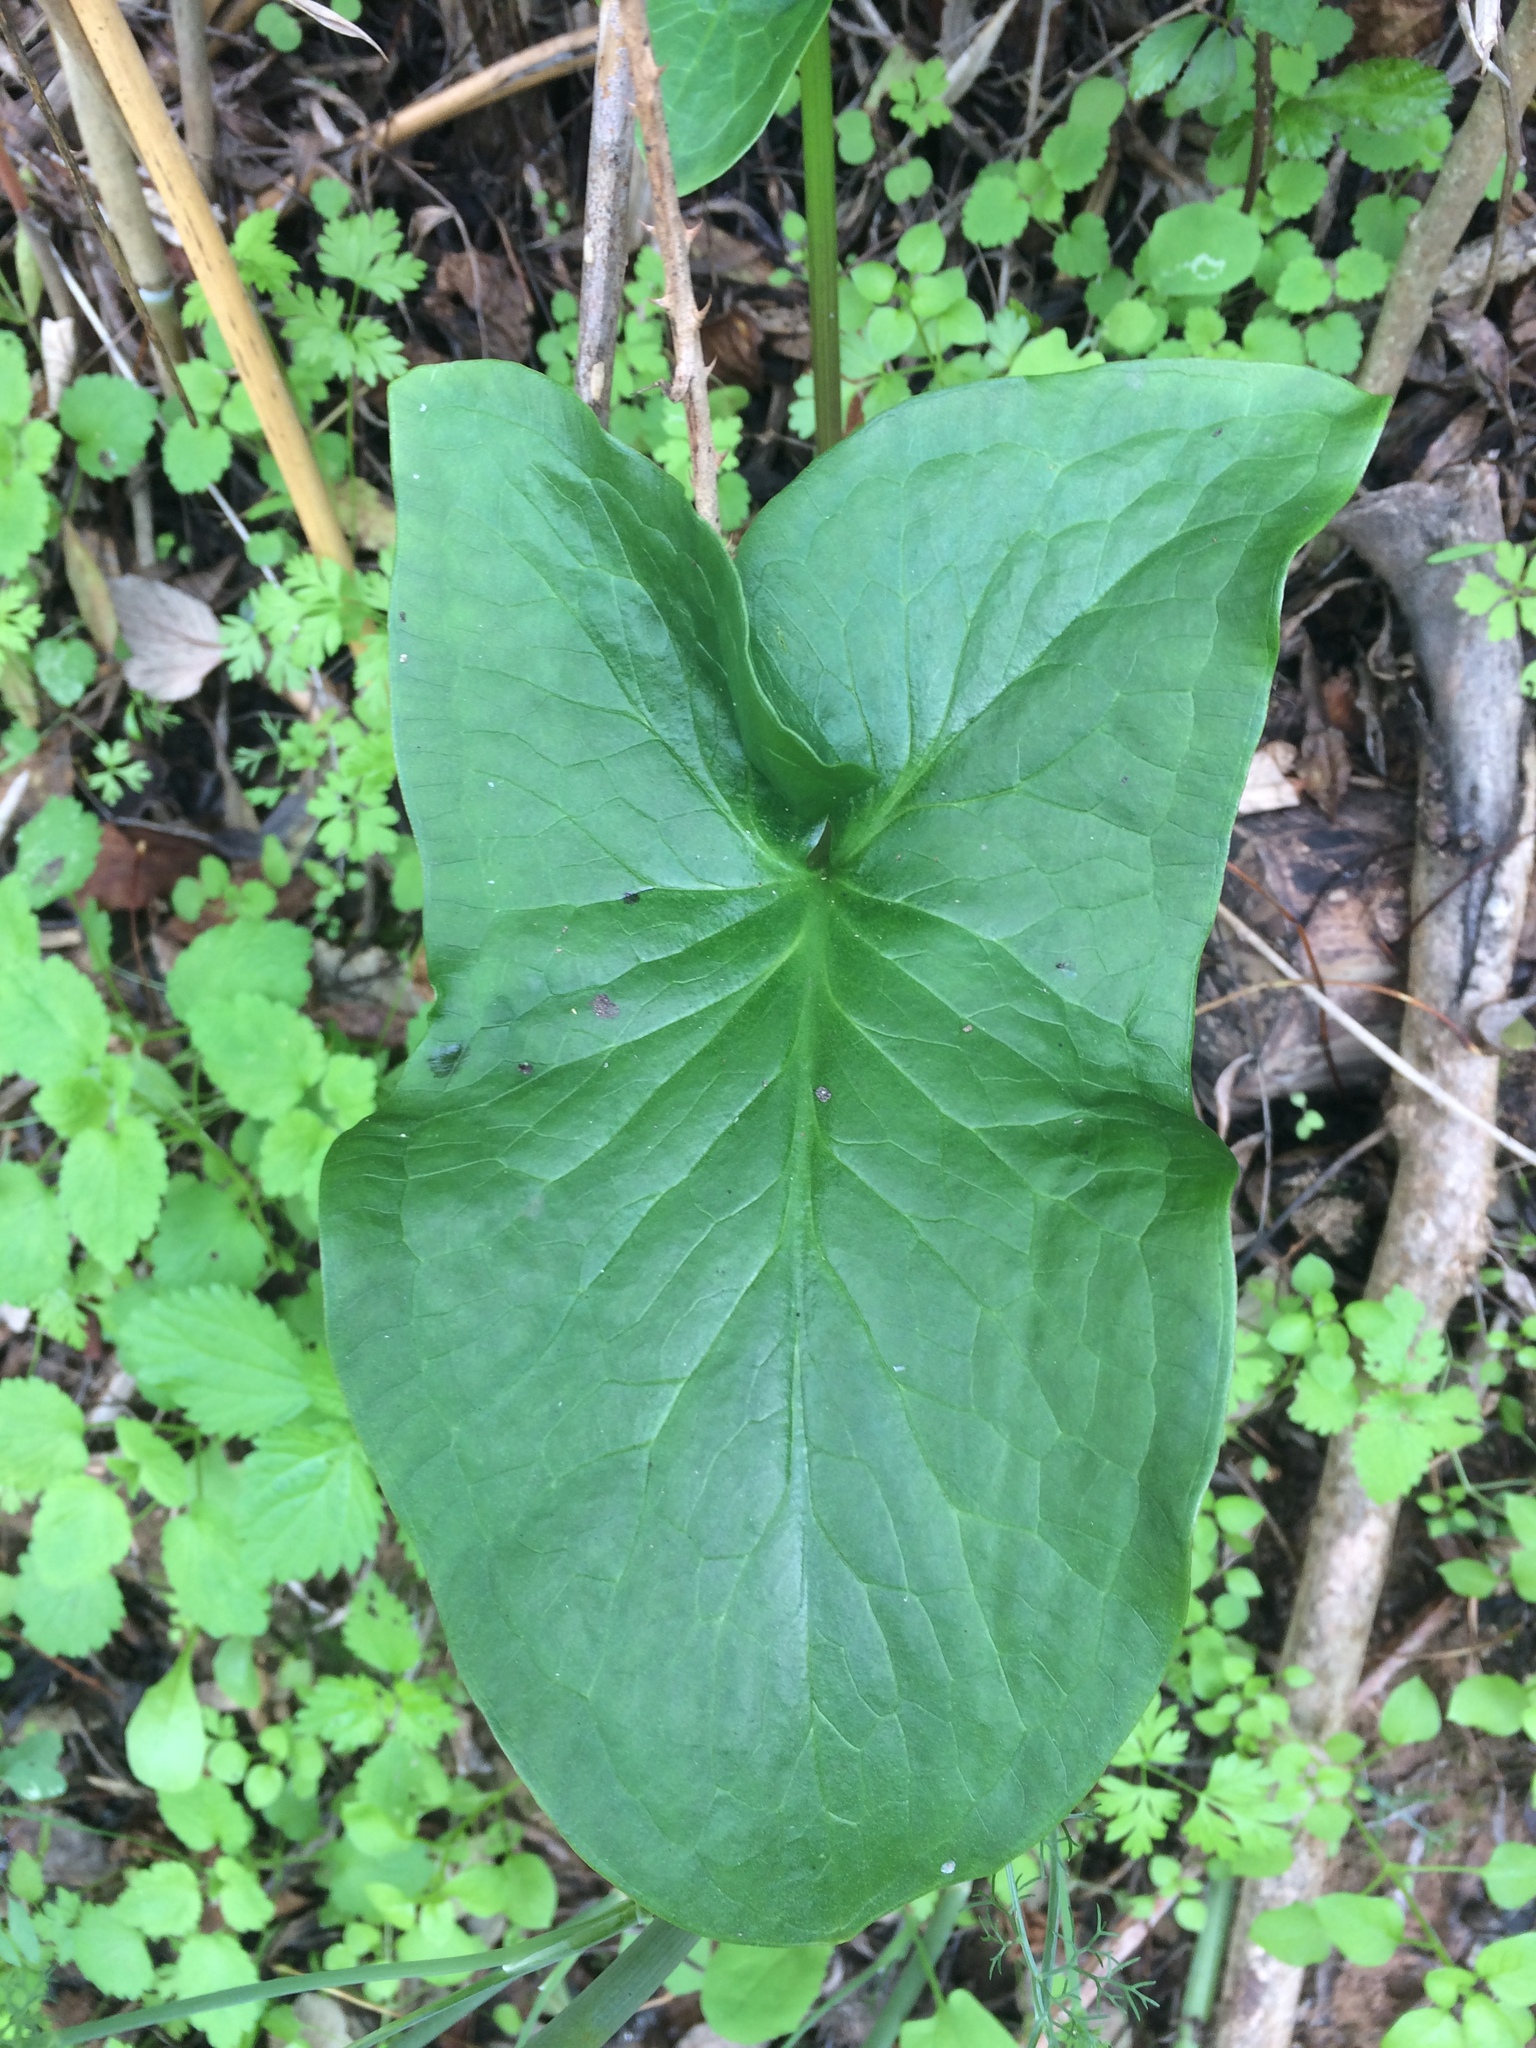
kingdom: Plantae
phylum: Tracheophyta
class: Liliopsida
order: Alismatales
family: Araceae
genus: Arum
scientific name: Arum italicum
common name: Italian lords-and-ladies
